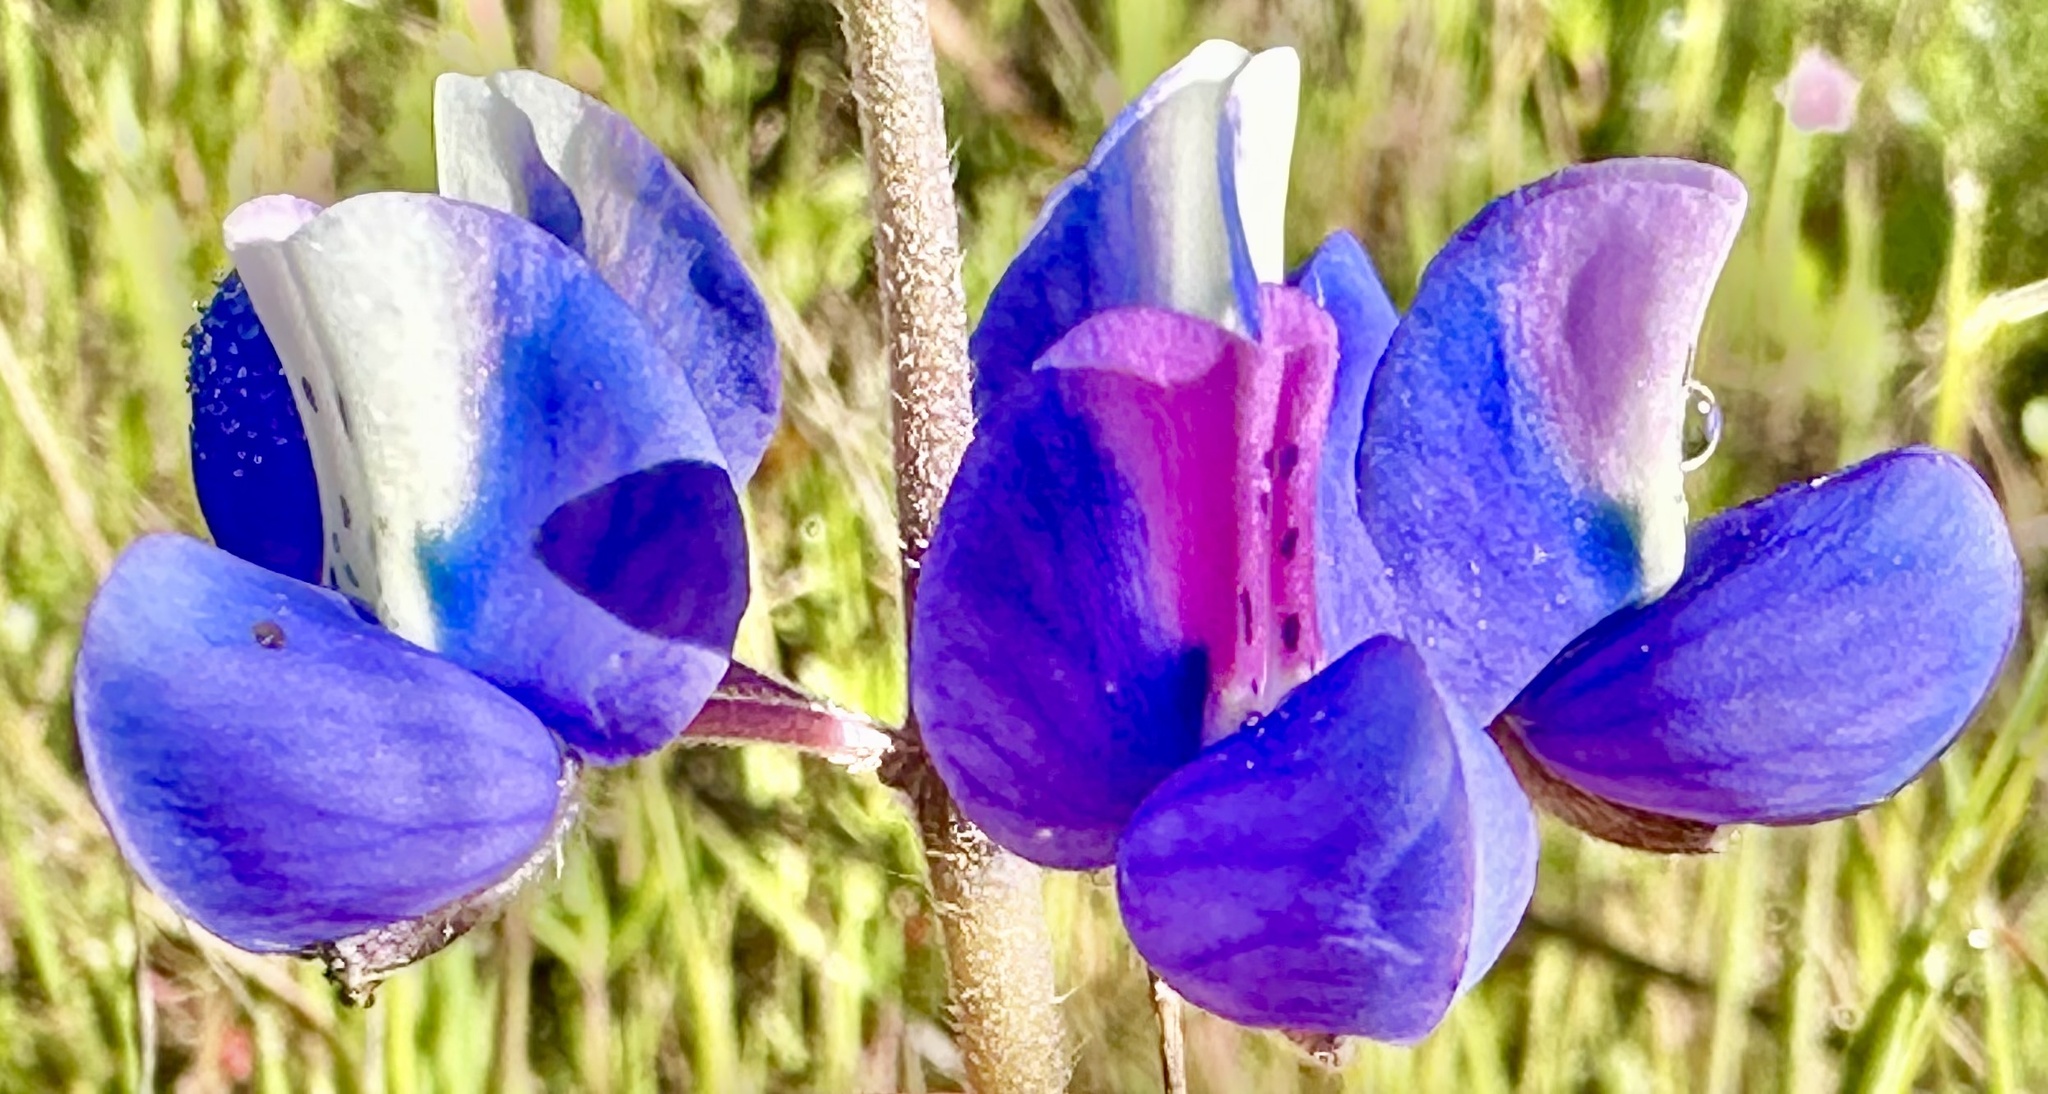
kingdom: Plantae
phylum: Tracheophyta
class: Magnoliopsida
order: Fabales
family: Fabaceae
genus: Lupinus
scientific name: Lupinus nanus
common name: Orean blue lupin
